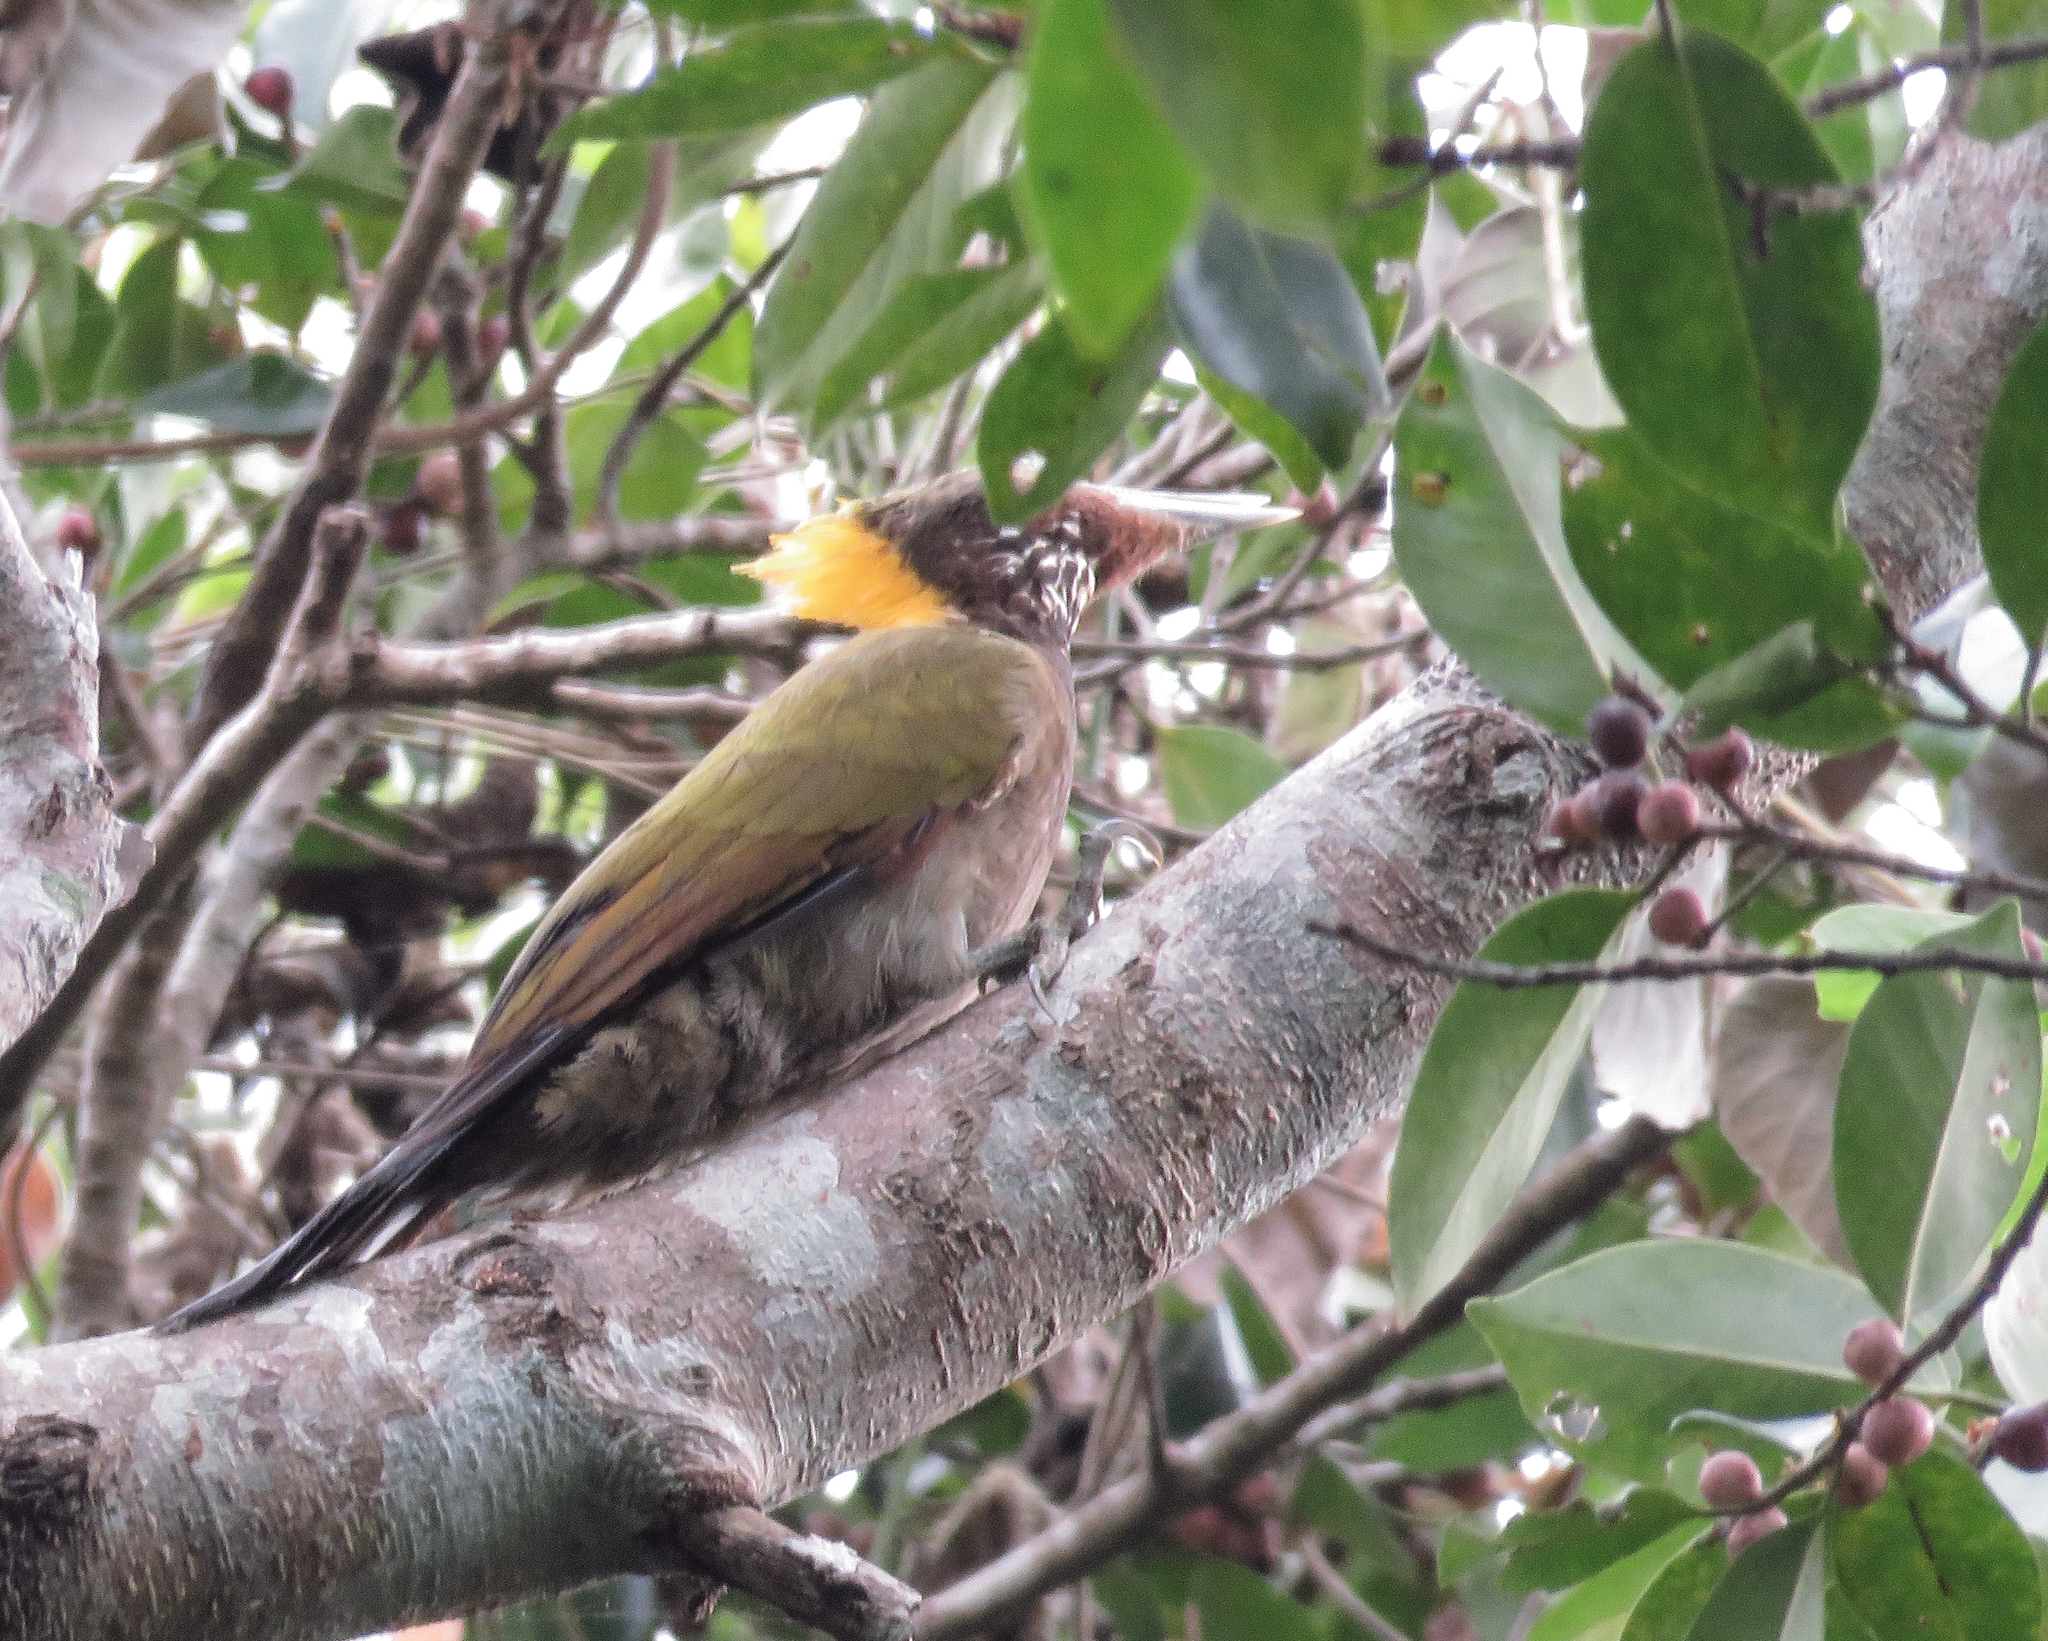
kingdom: Animalia
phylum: Chordata
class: Aves
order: Piciformes
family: Picidae
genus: Chrysophlegma
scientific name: Chrysophlegma flavinucha
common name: Greater yellownape
